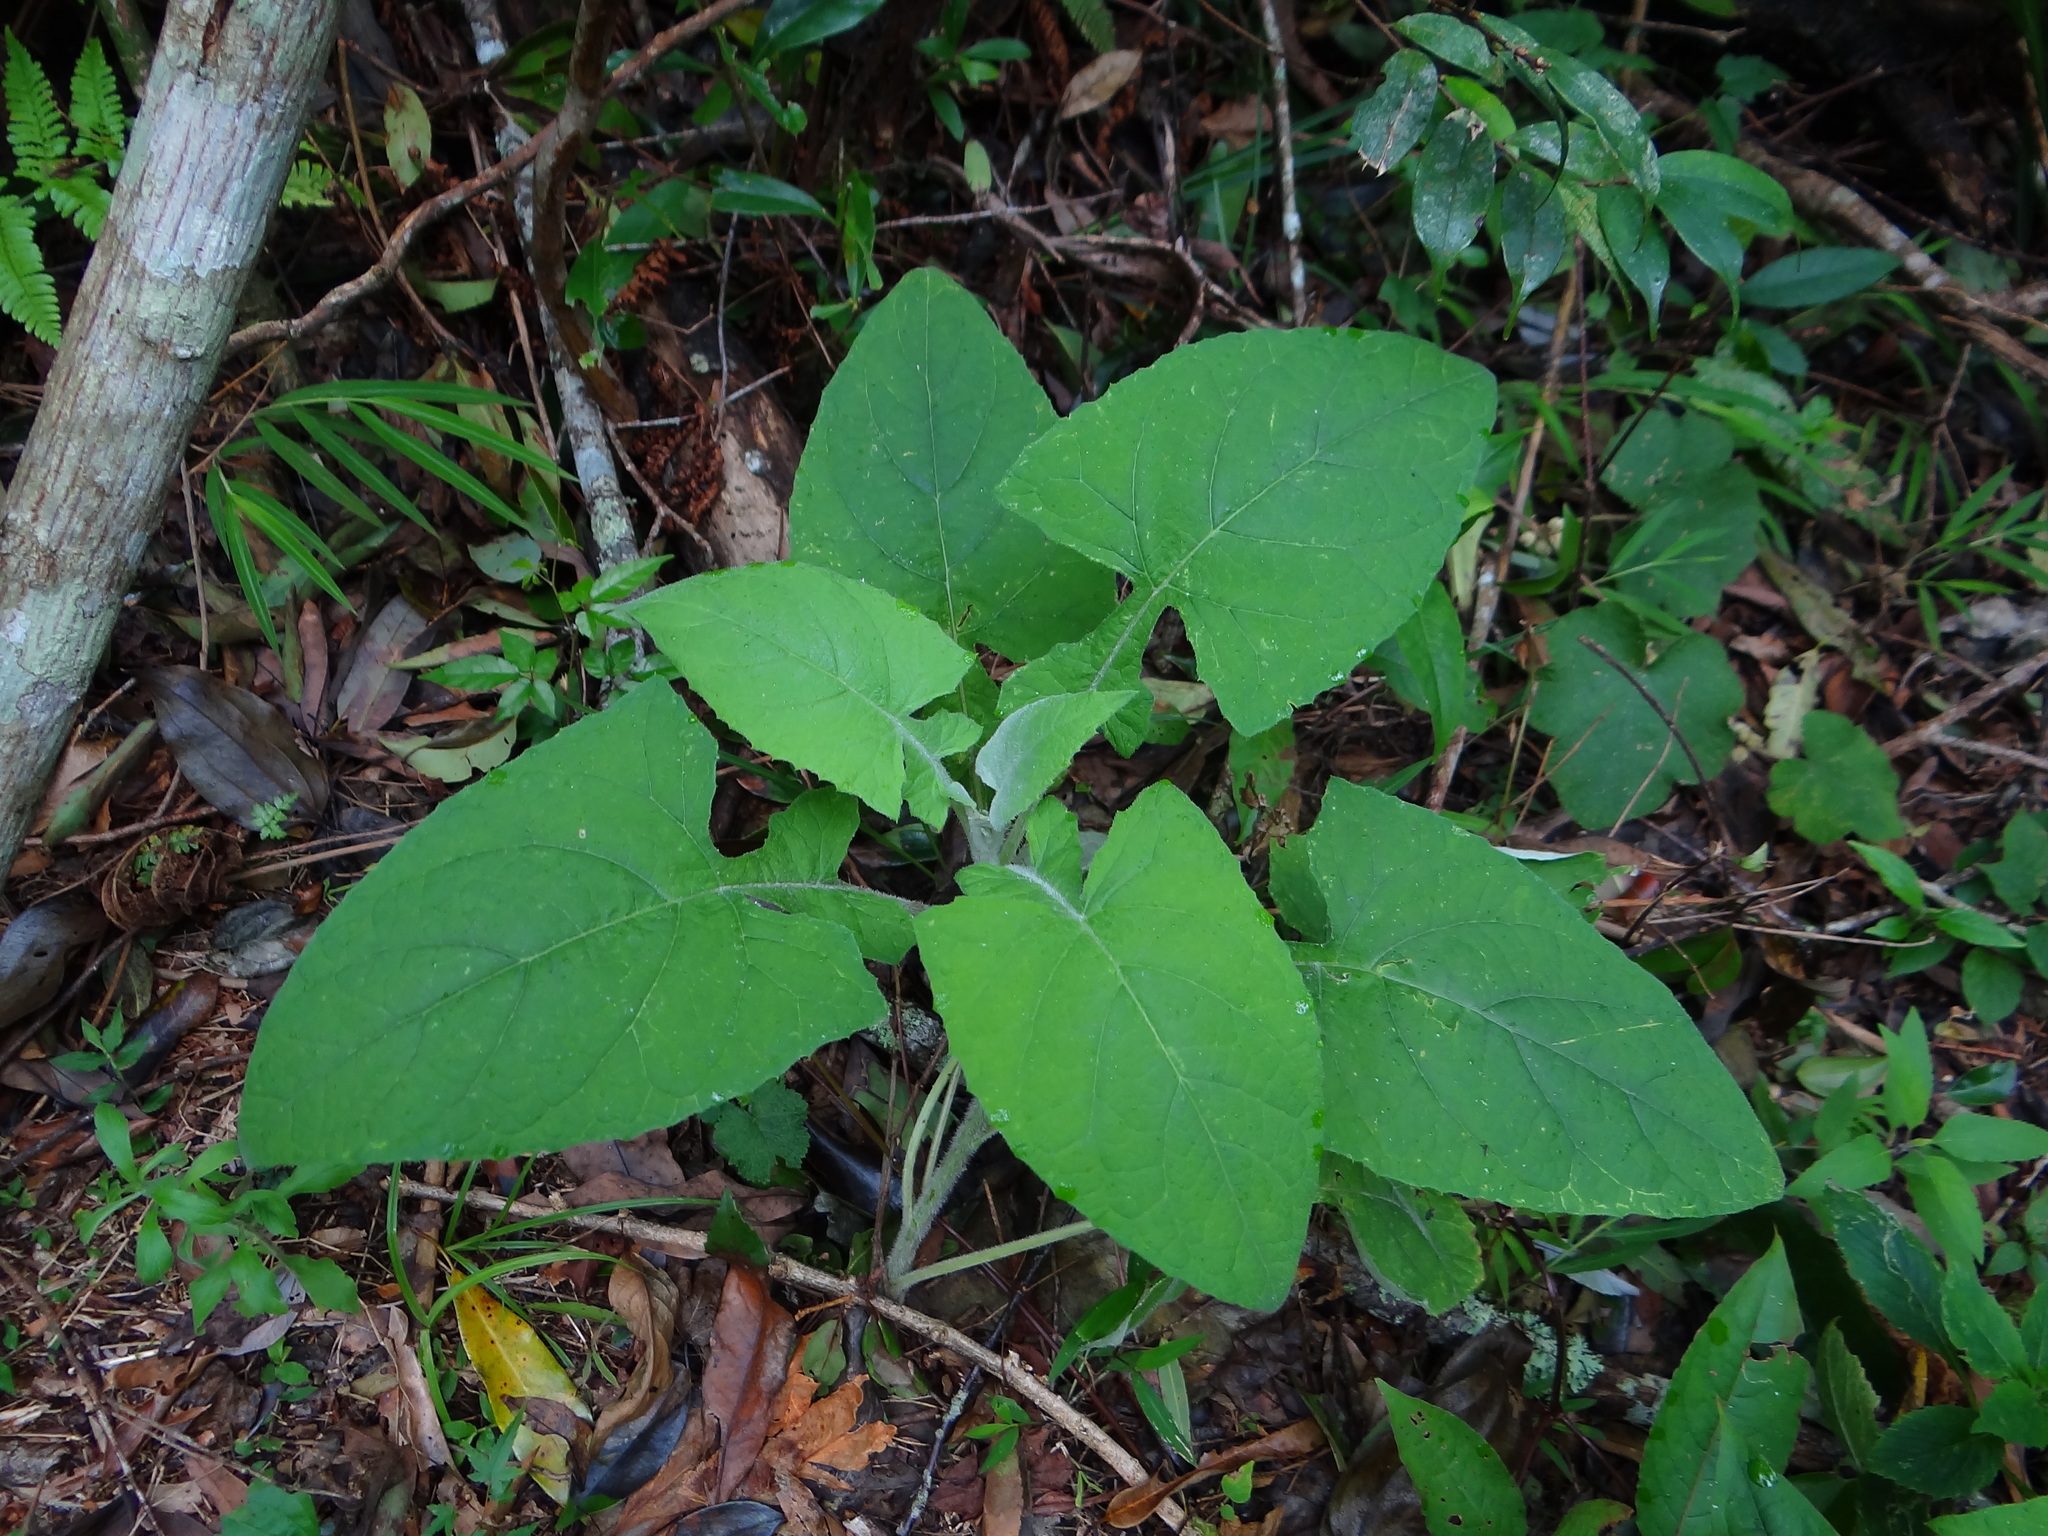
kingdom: Plantae
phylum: Tracheophyta
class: Magnoliopsida
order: Asterales
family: Asteraceae
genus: Jurinea
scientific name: Jurinea deltoidea
